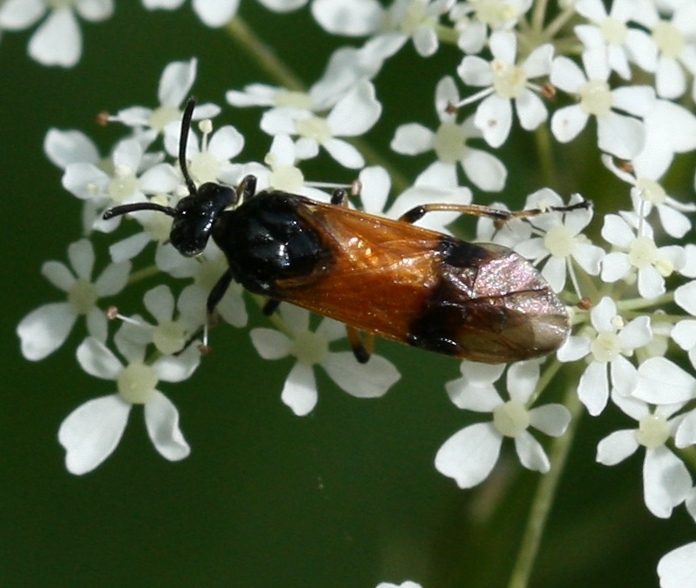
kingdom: Animalia
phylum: Arthropoda
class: Insecta
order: Hymenoptera
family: Argidae
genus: Arge
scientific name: Arge cyanocrocea
